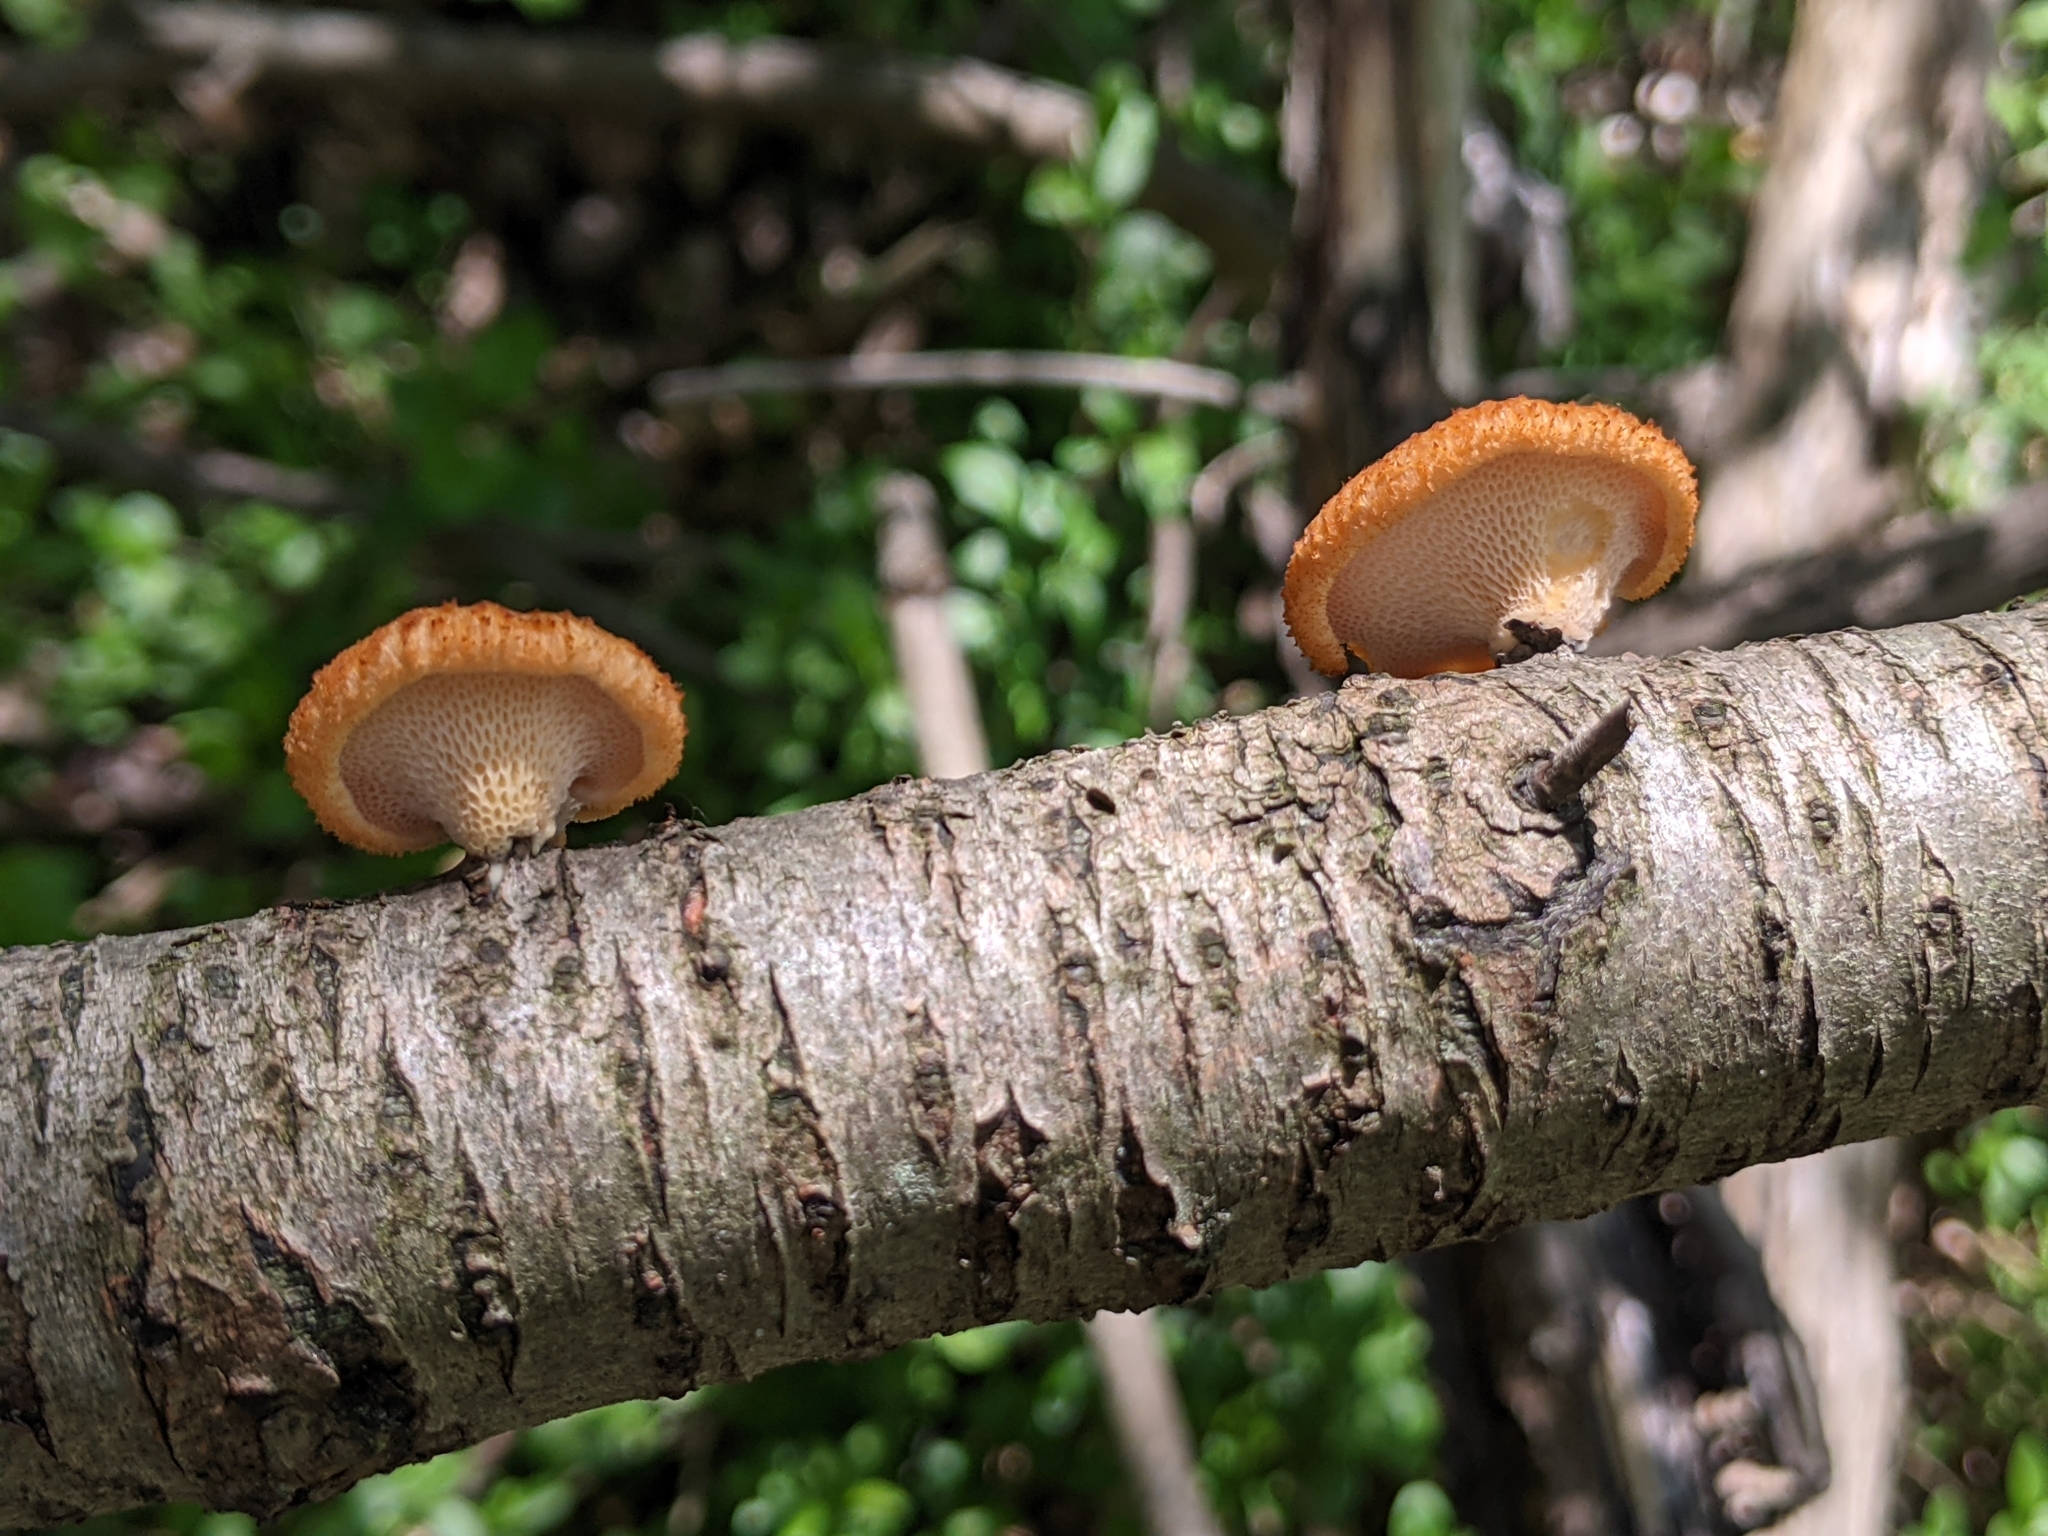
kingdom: Fungi
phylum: Basidiomycota
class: Agaricomycetes
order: Polyporales
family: Polyporaceae
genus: Neofavolus
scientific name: Neofavolus alveolaris
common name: Hexagonal-pored polypore
